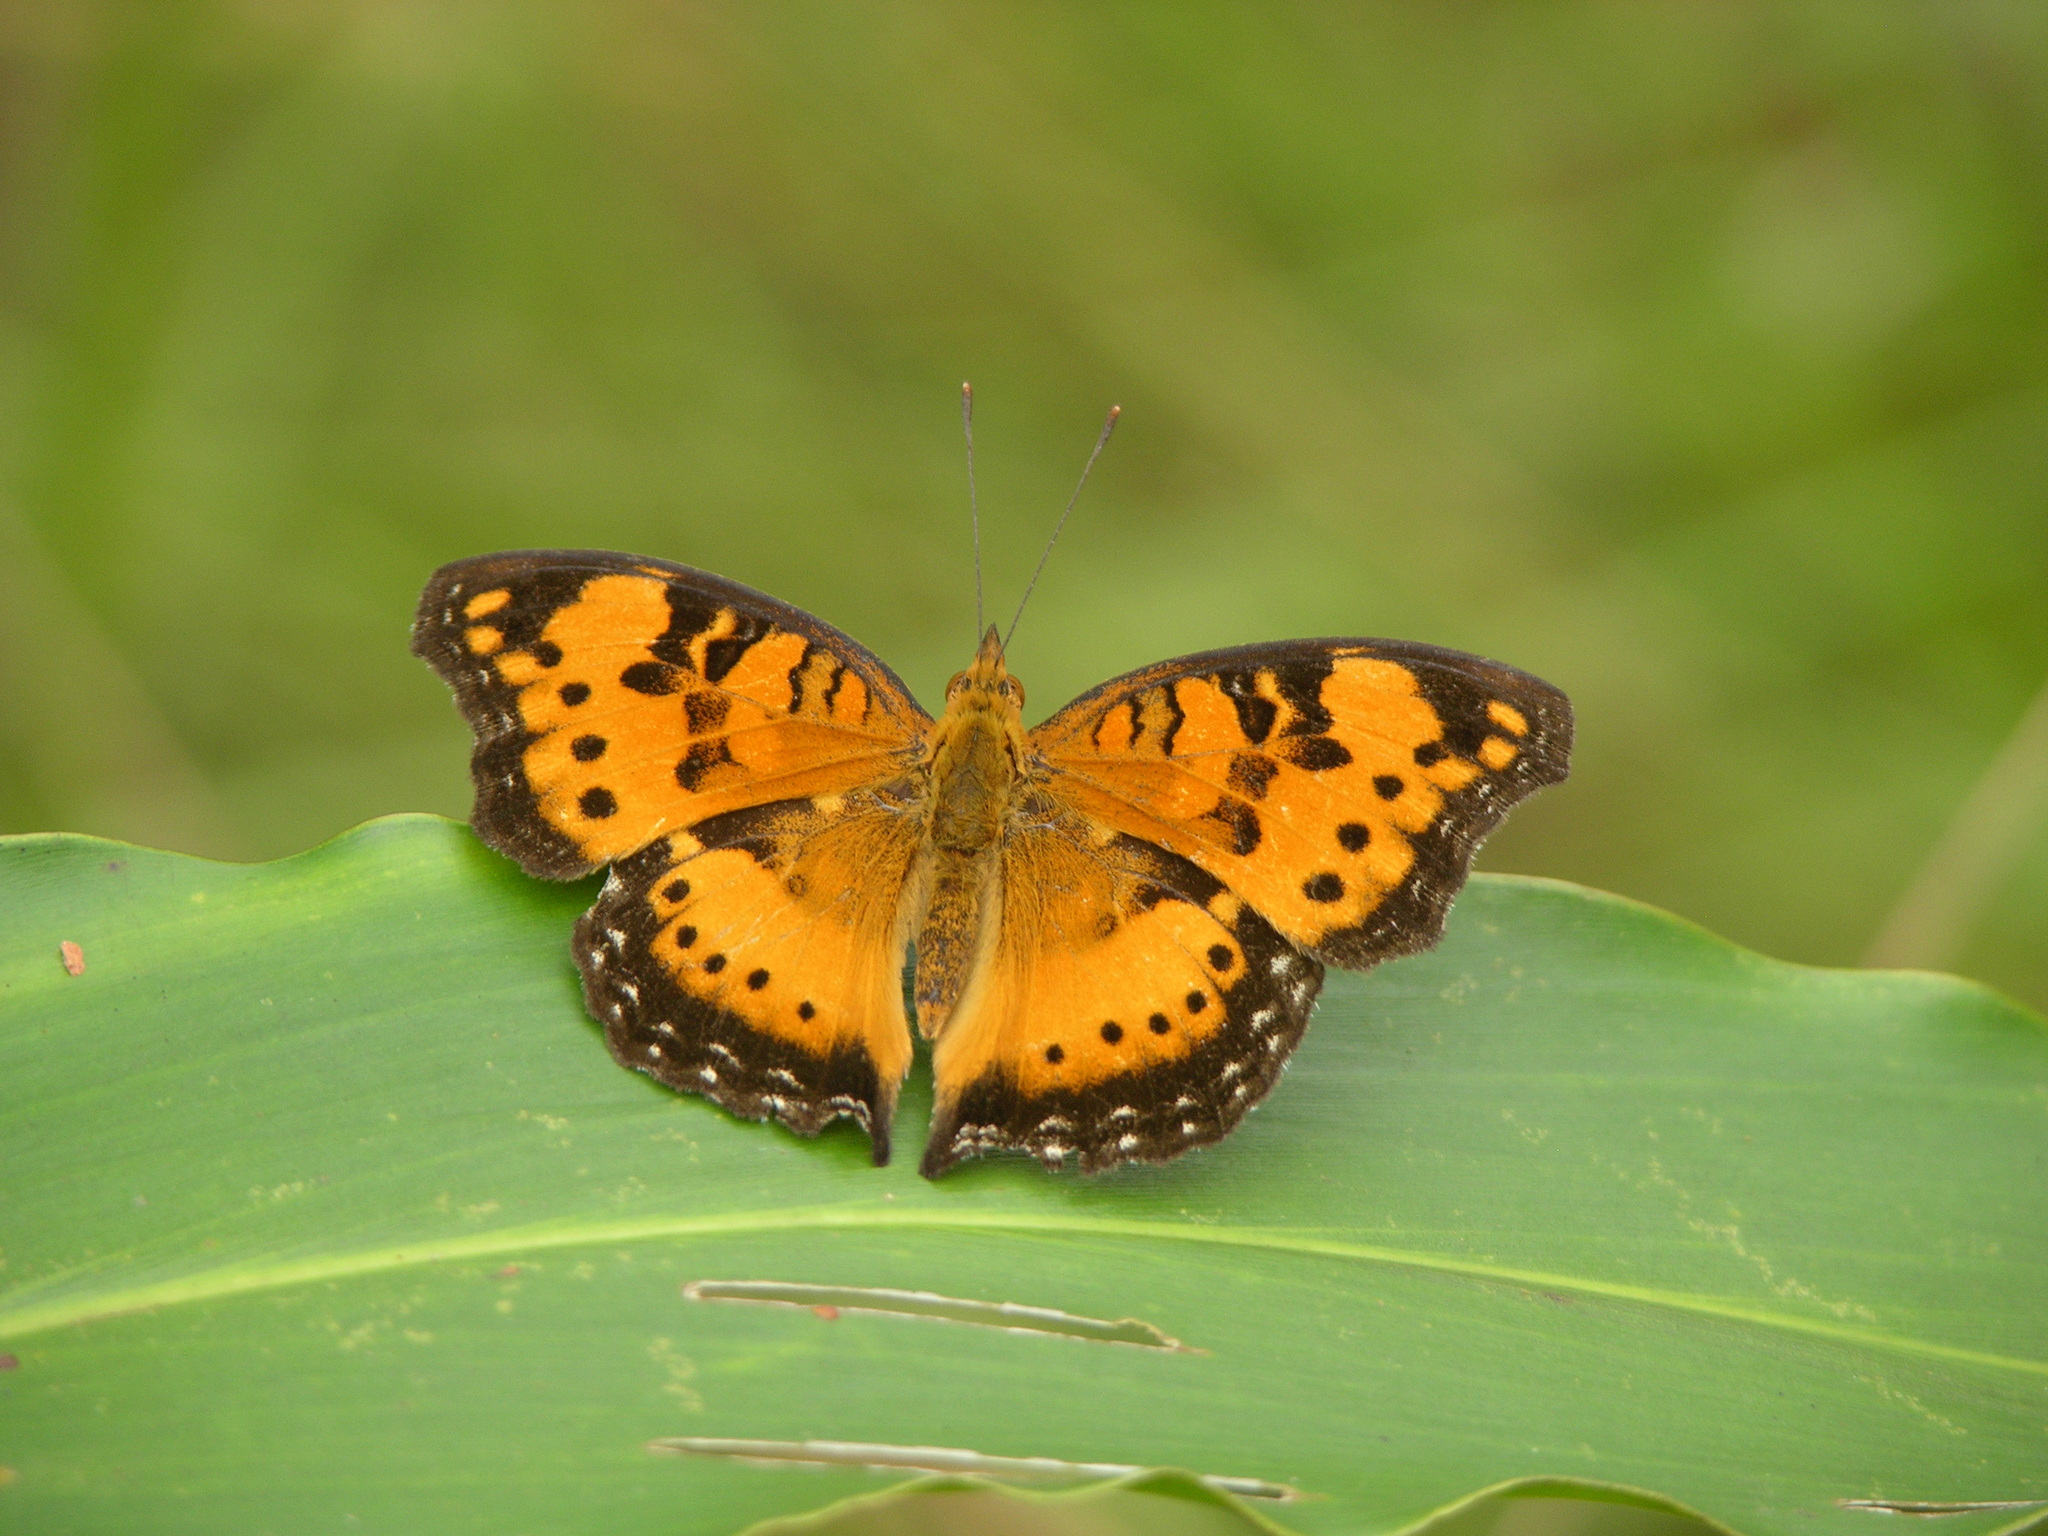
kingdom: Animalia
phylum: Arthropoda
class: Insecta
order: Lepidoptera
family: Nymphalidae
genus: Junonia
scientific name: Junonia antilope
